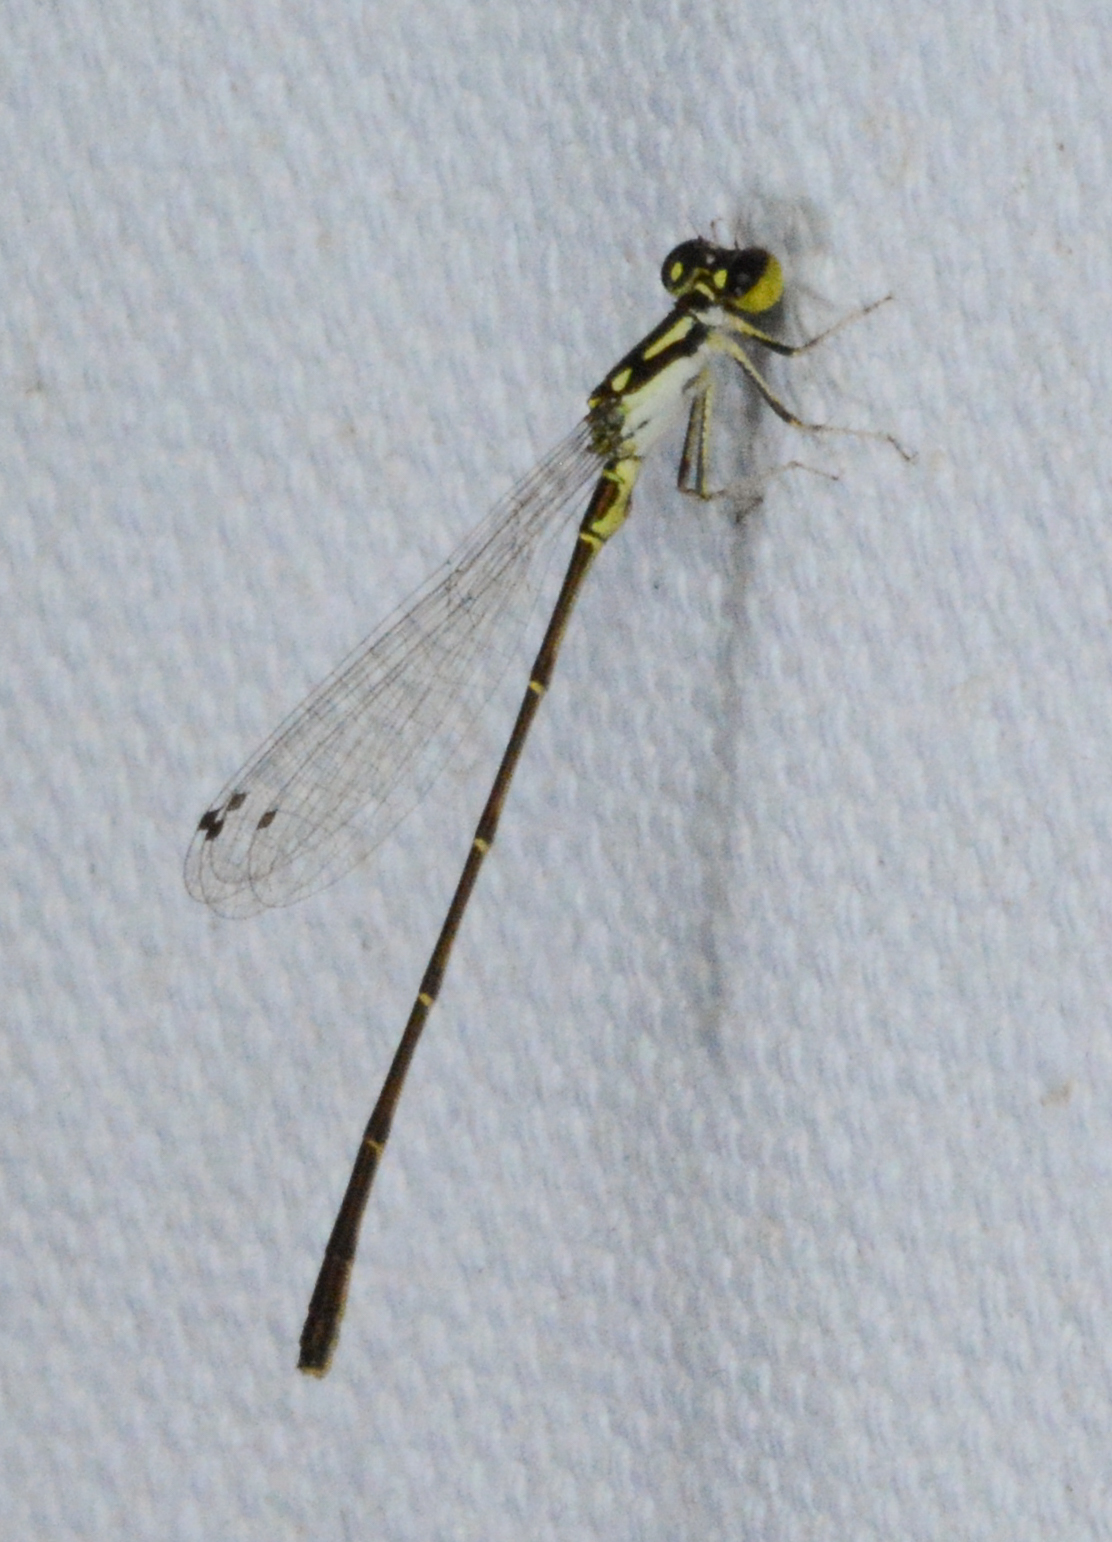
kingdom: Animalia
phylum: Arthropoda
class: Insecta
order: Odonata
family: Coenagrionidae
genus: Ischnura
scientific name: Ischnura posita
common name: Fragile forktail
